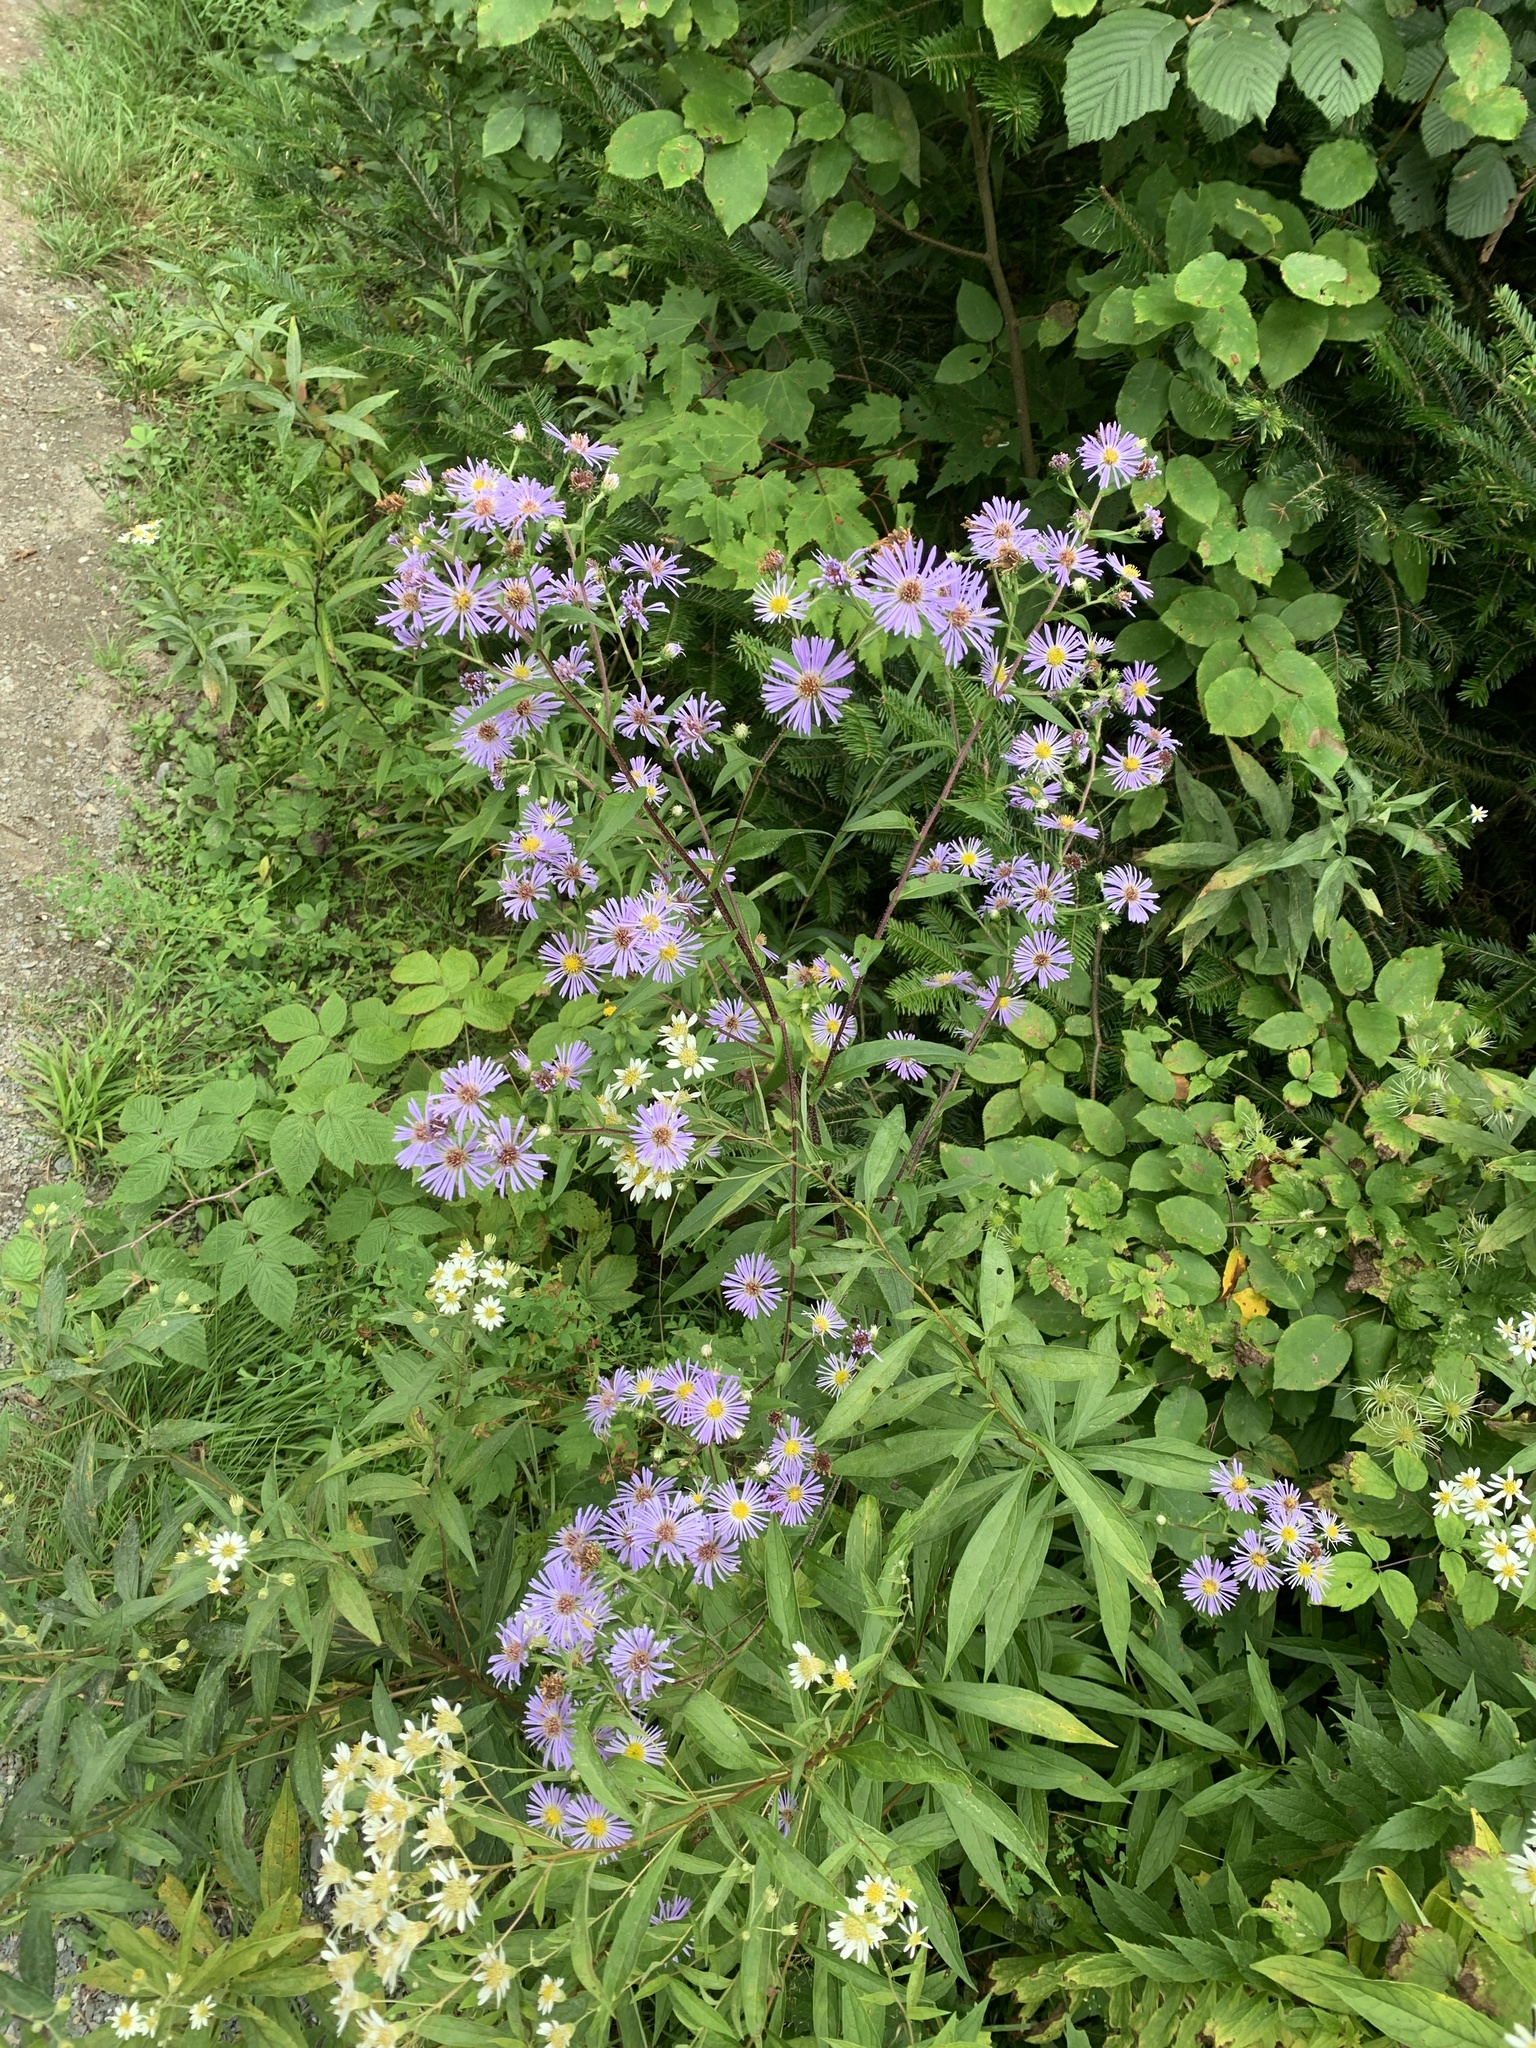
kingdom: Plantae
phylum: Tracheophyta
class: Magnoliopsida
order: Asterales
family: Asteraceae
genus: Symphyotrichum
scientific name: Symphyotrichum puniceum
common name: Bog aster
